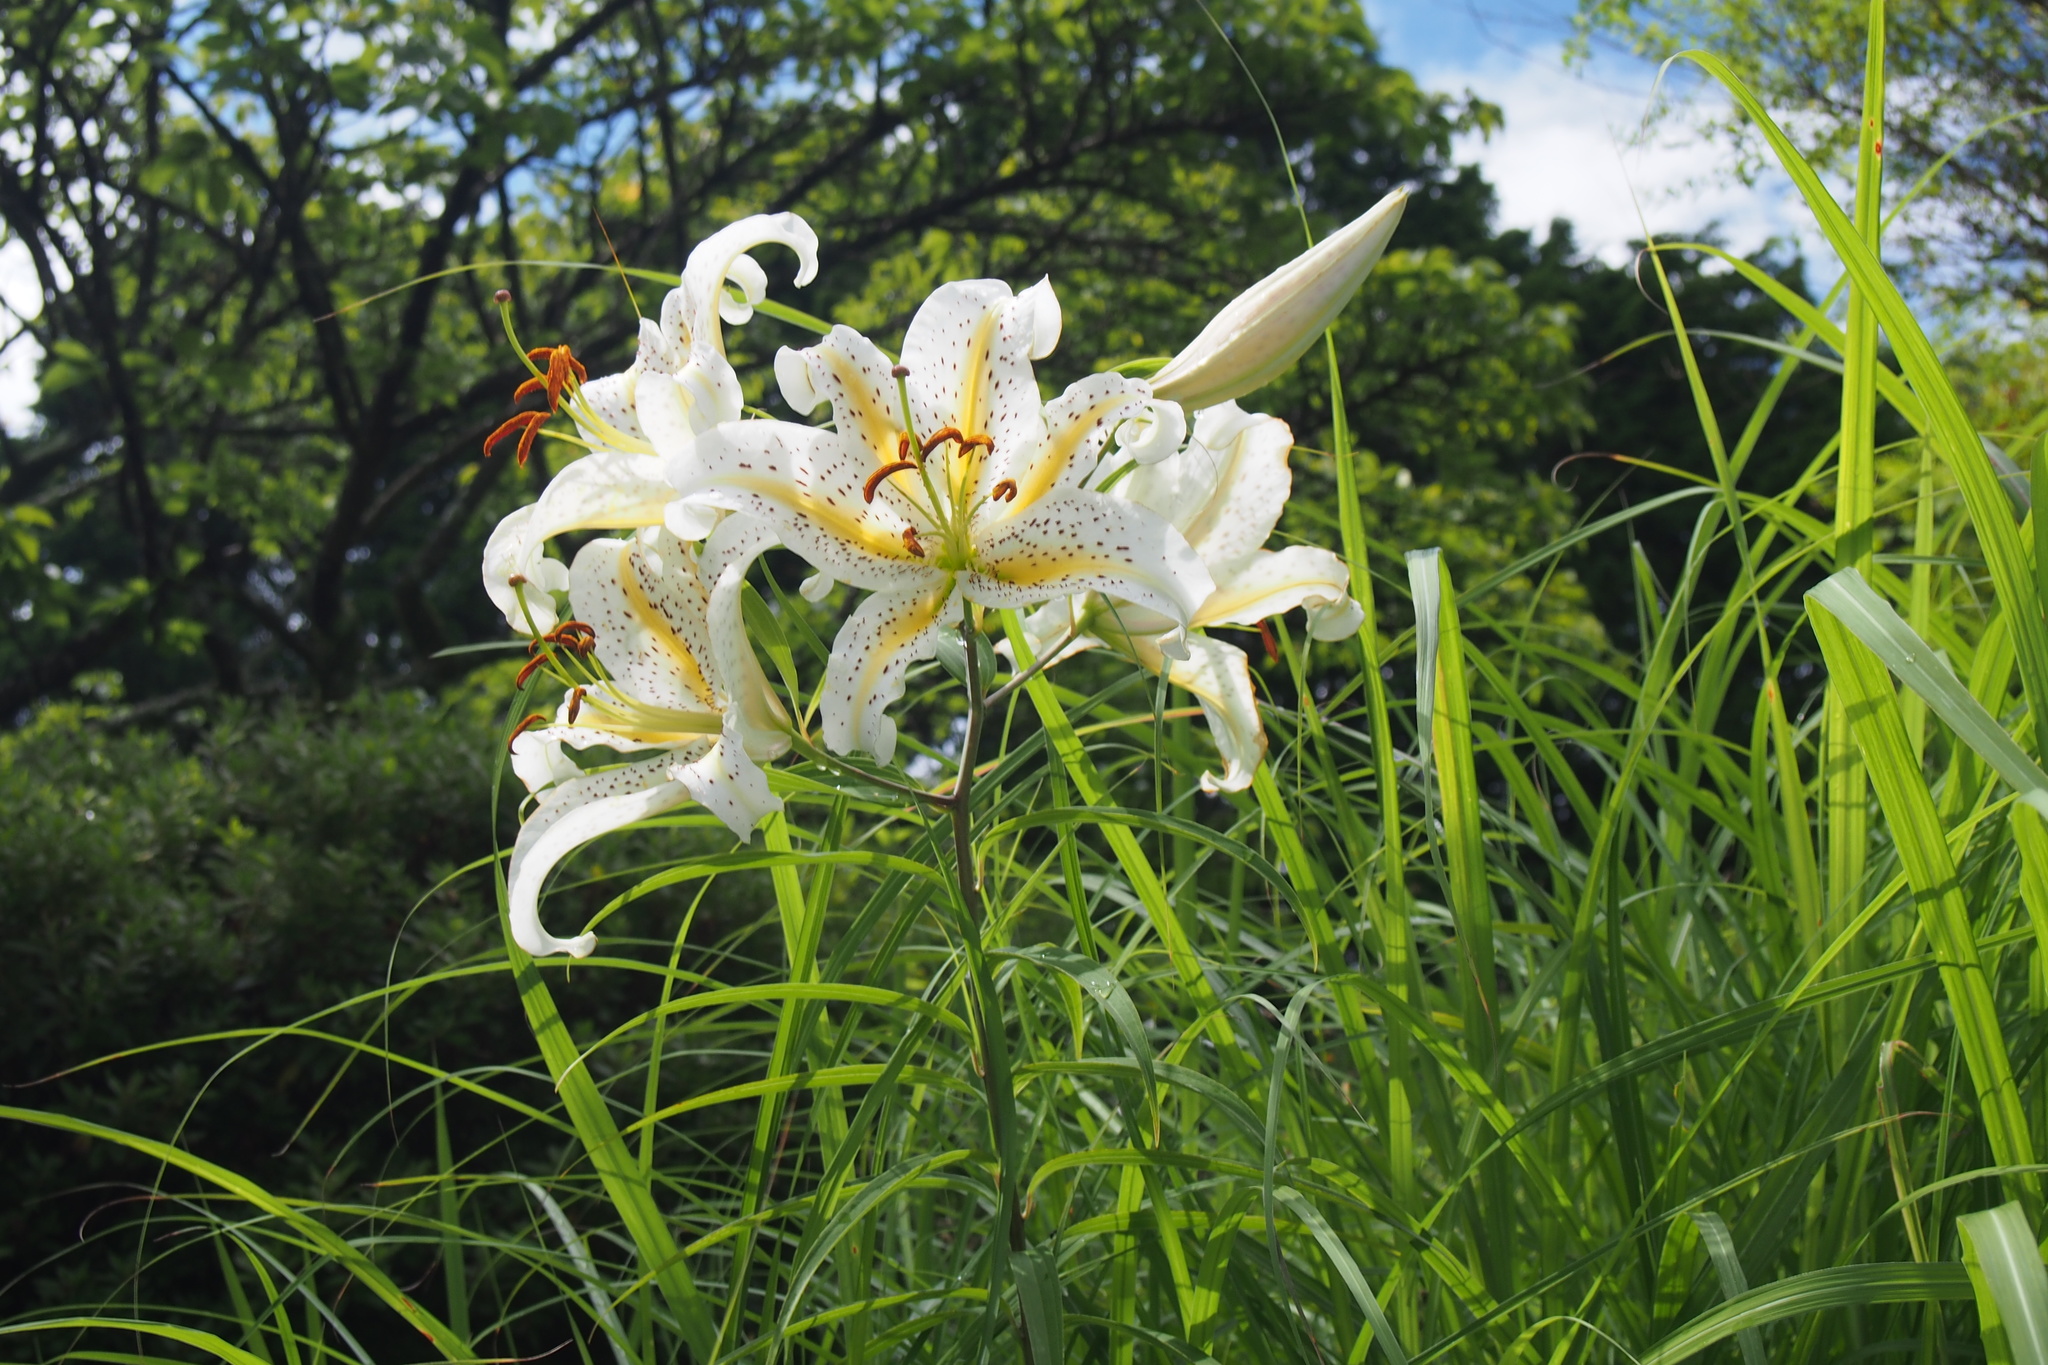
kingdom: Plantae
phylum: Tracheophyta
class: Liliopsida
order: Liliales
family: Liliaceae
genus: Lilium
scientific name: Lilium auratum
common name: Golden-ray lily
